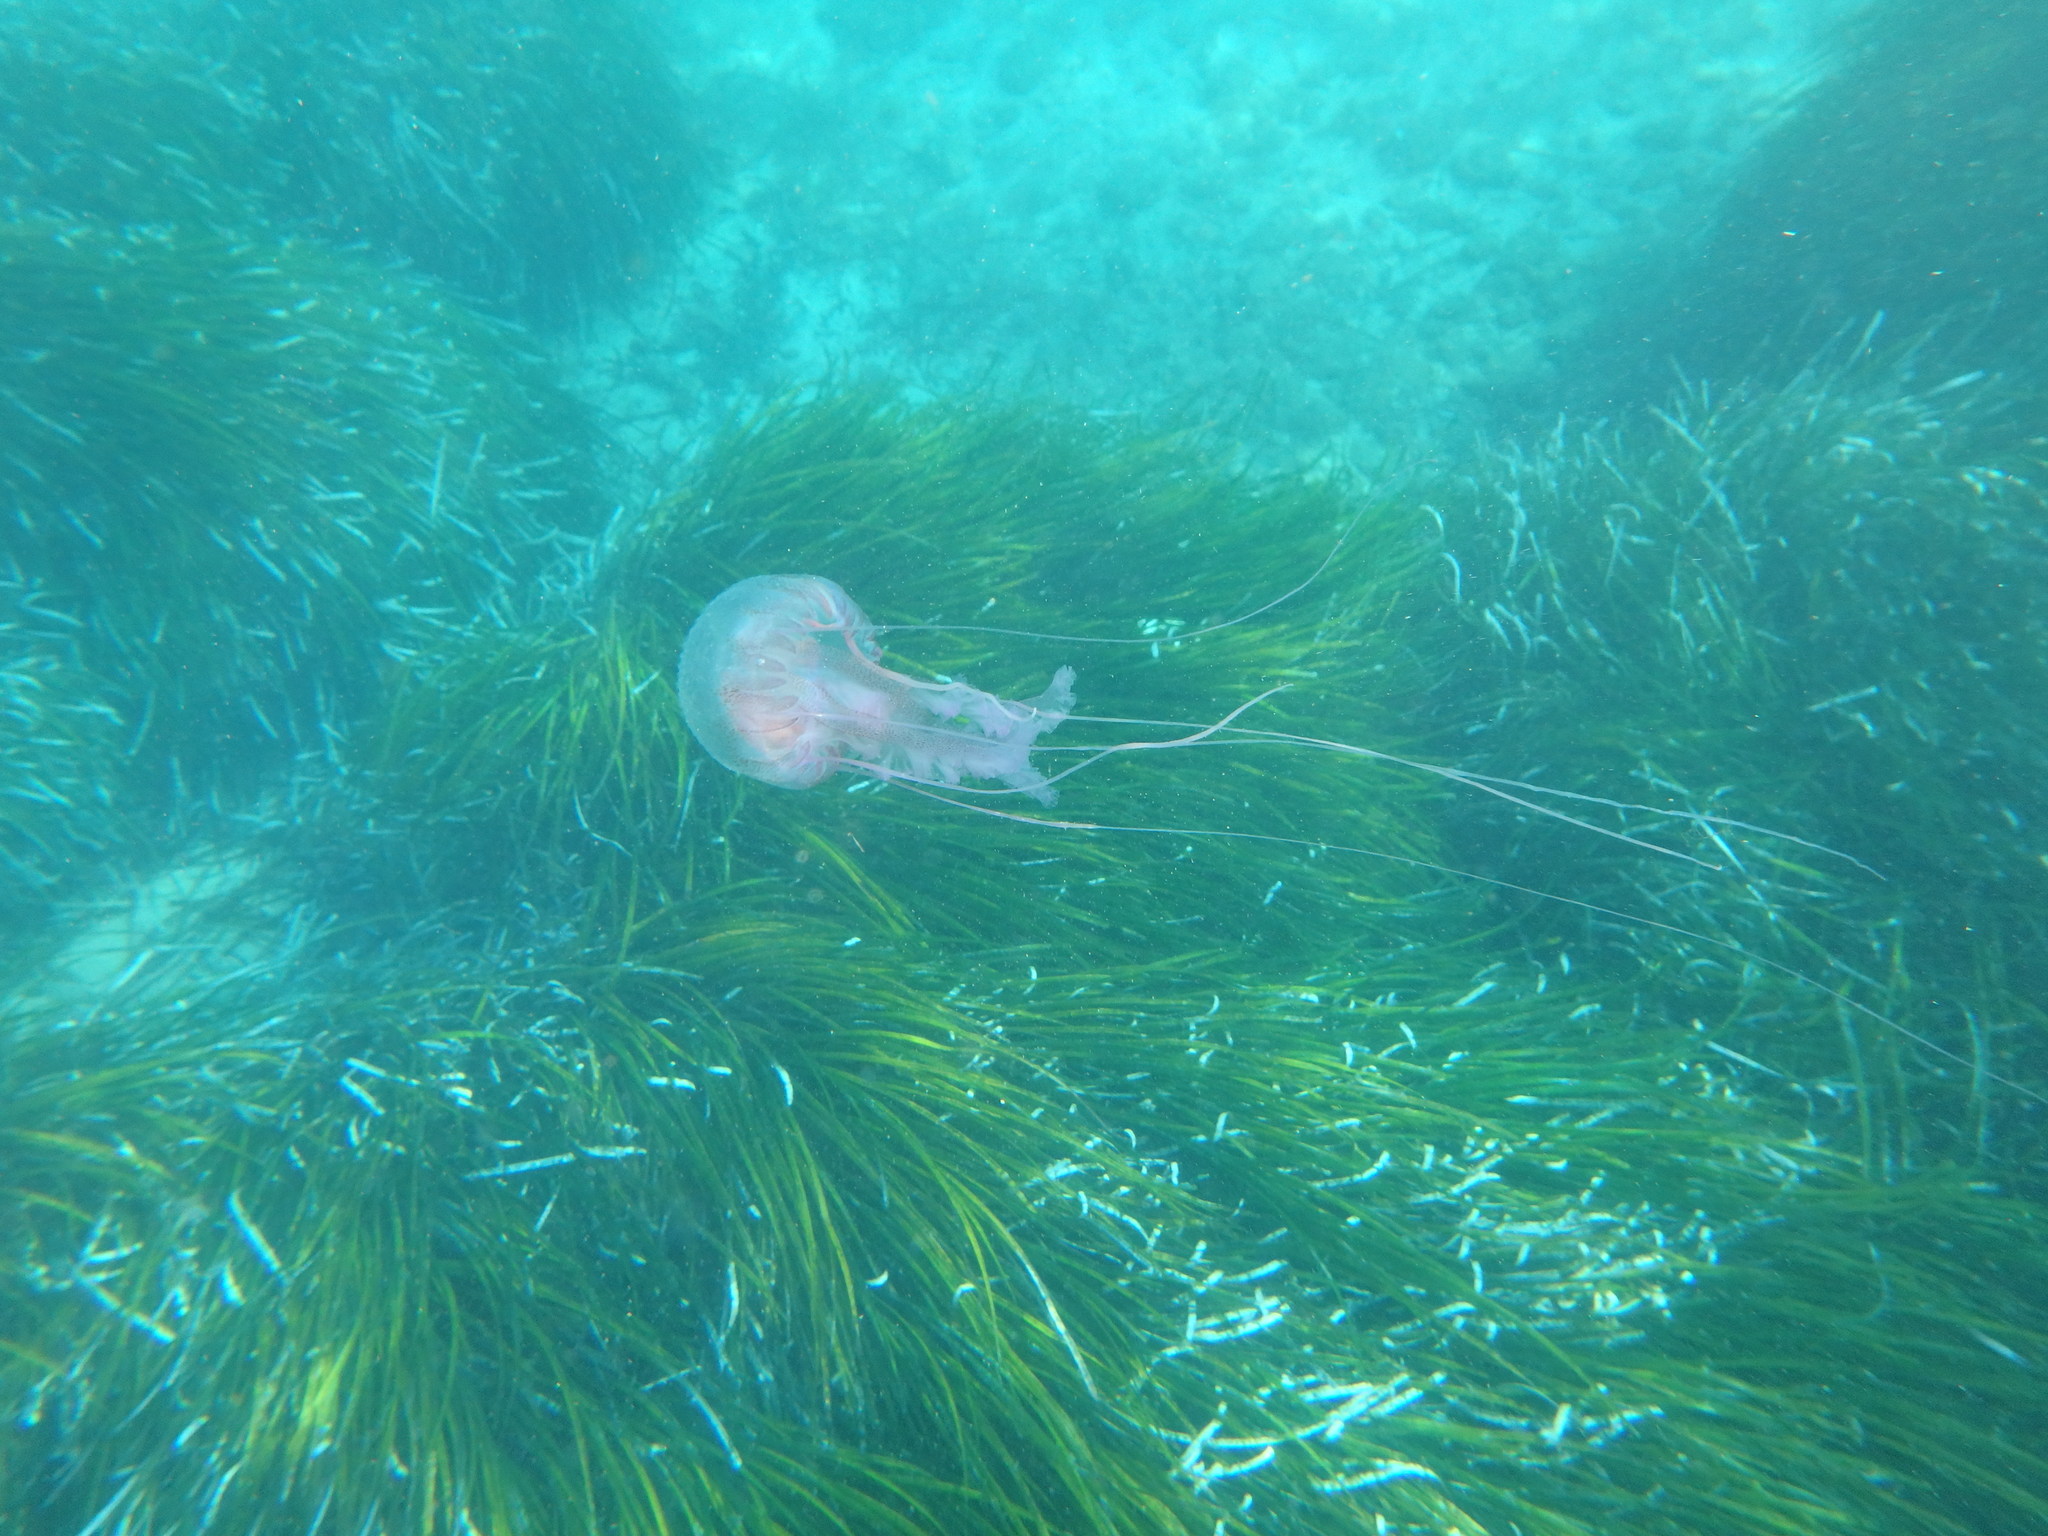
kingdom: Animalia
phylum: Cnidaria
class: Scyphozoa
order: Semaeostomeae
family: Pelagiidae
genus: Pelagia
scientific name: Pelagia noctiluca
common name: Mauve stinger
